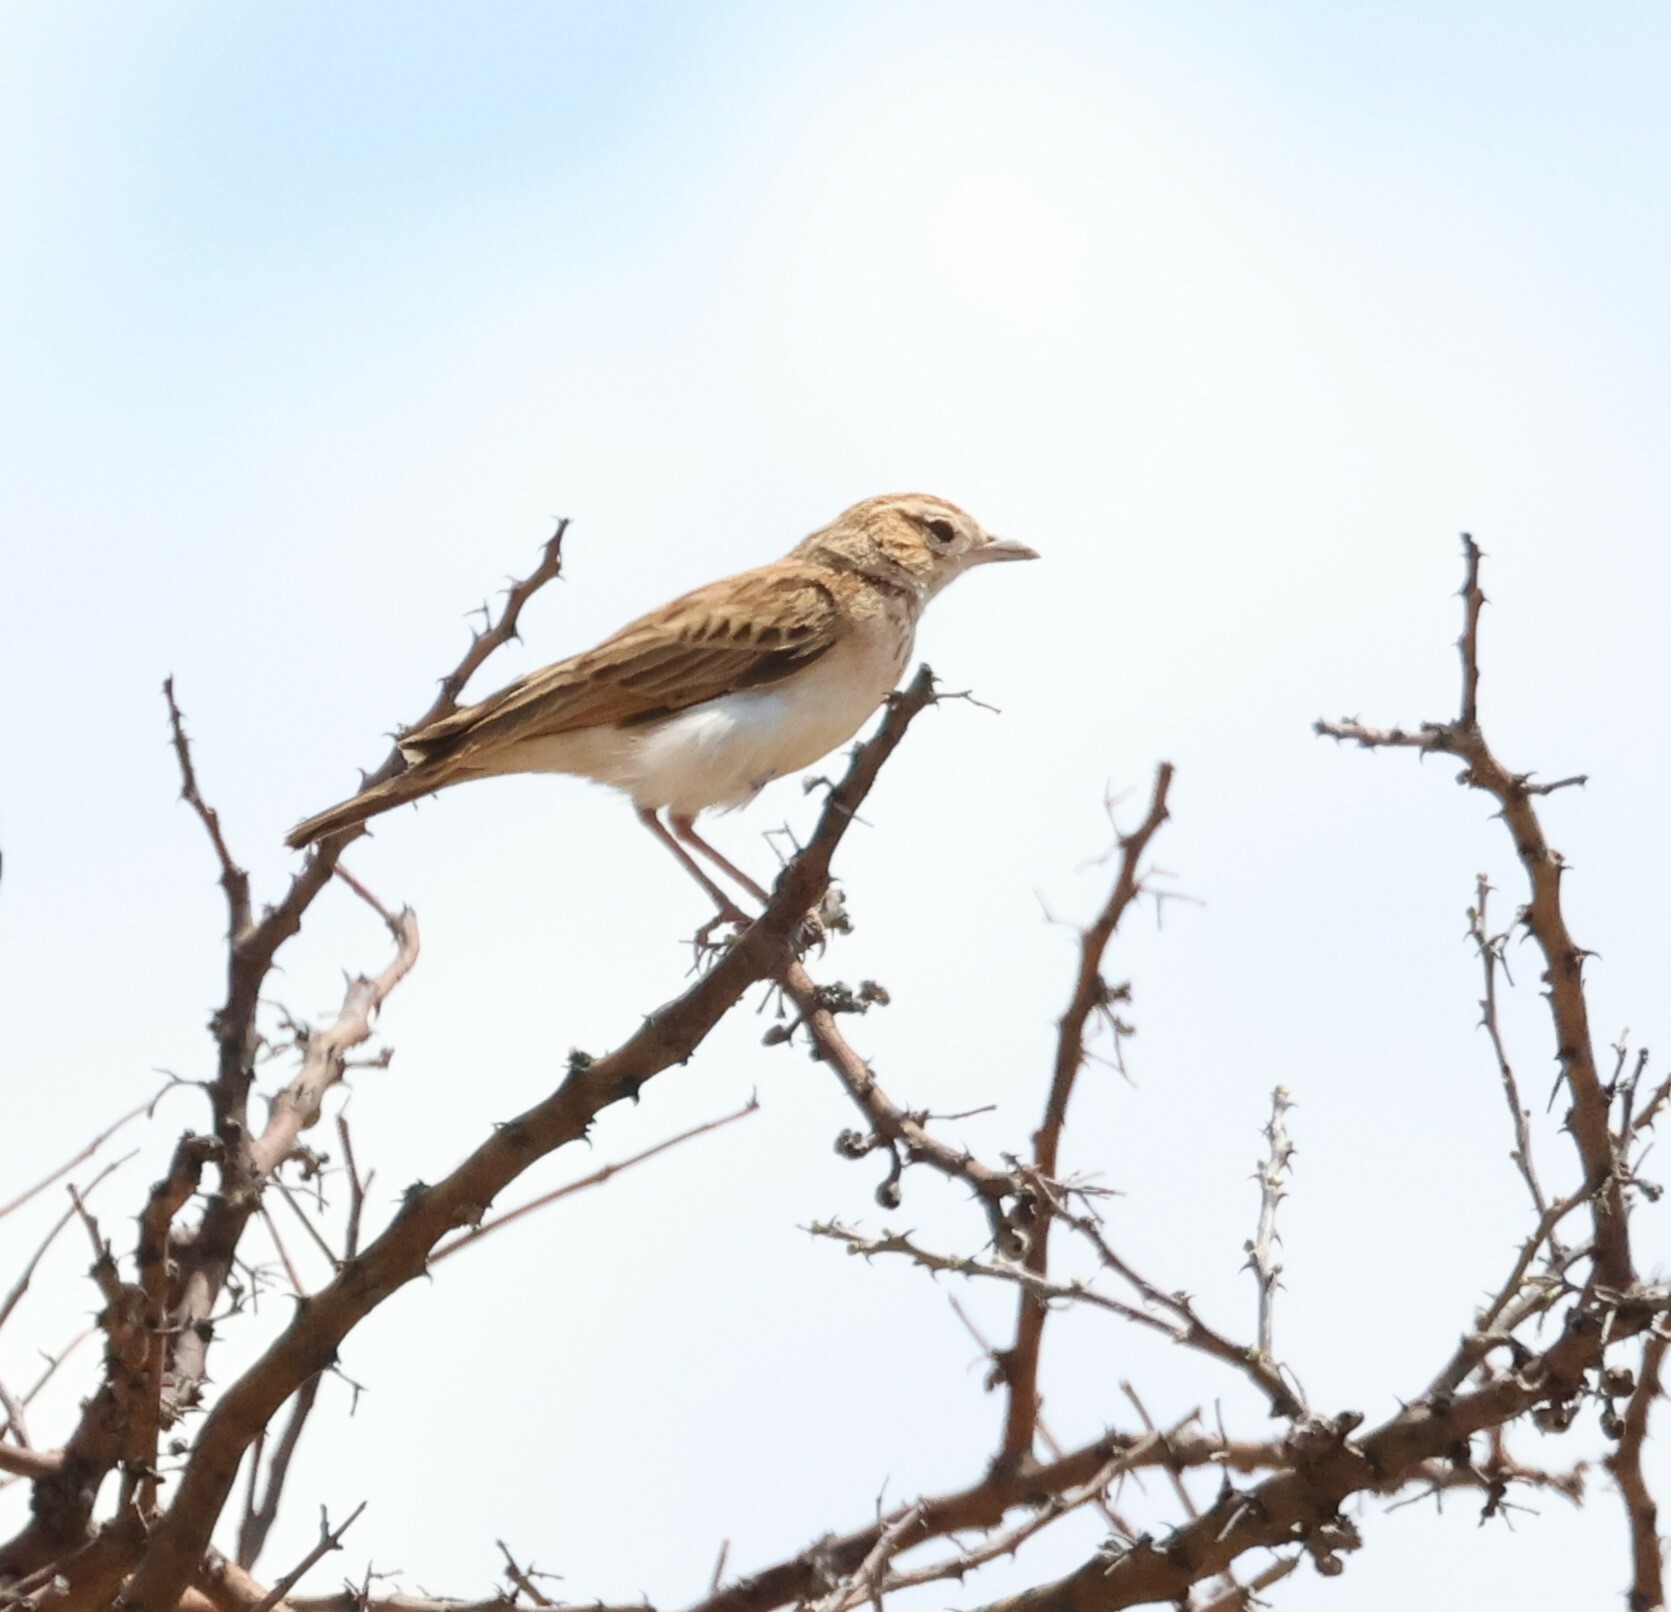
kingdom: Animalia
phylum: Chordata
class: Aves
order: Passeriformes
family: Alaudidae
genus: Calendulauda
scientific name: Calendulauda africanoides
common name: Fawn-colored lark
